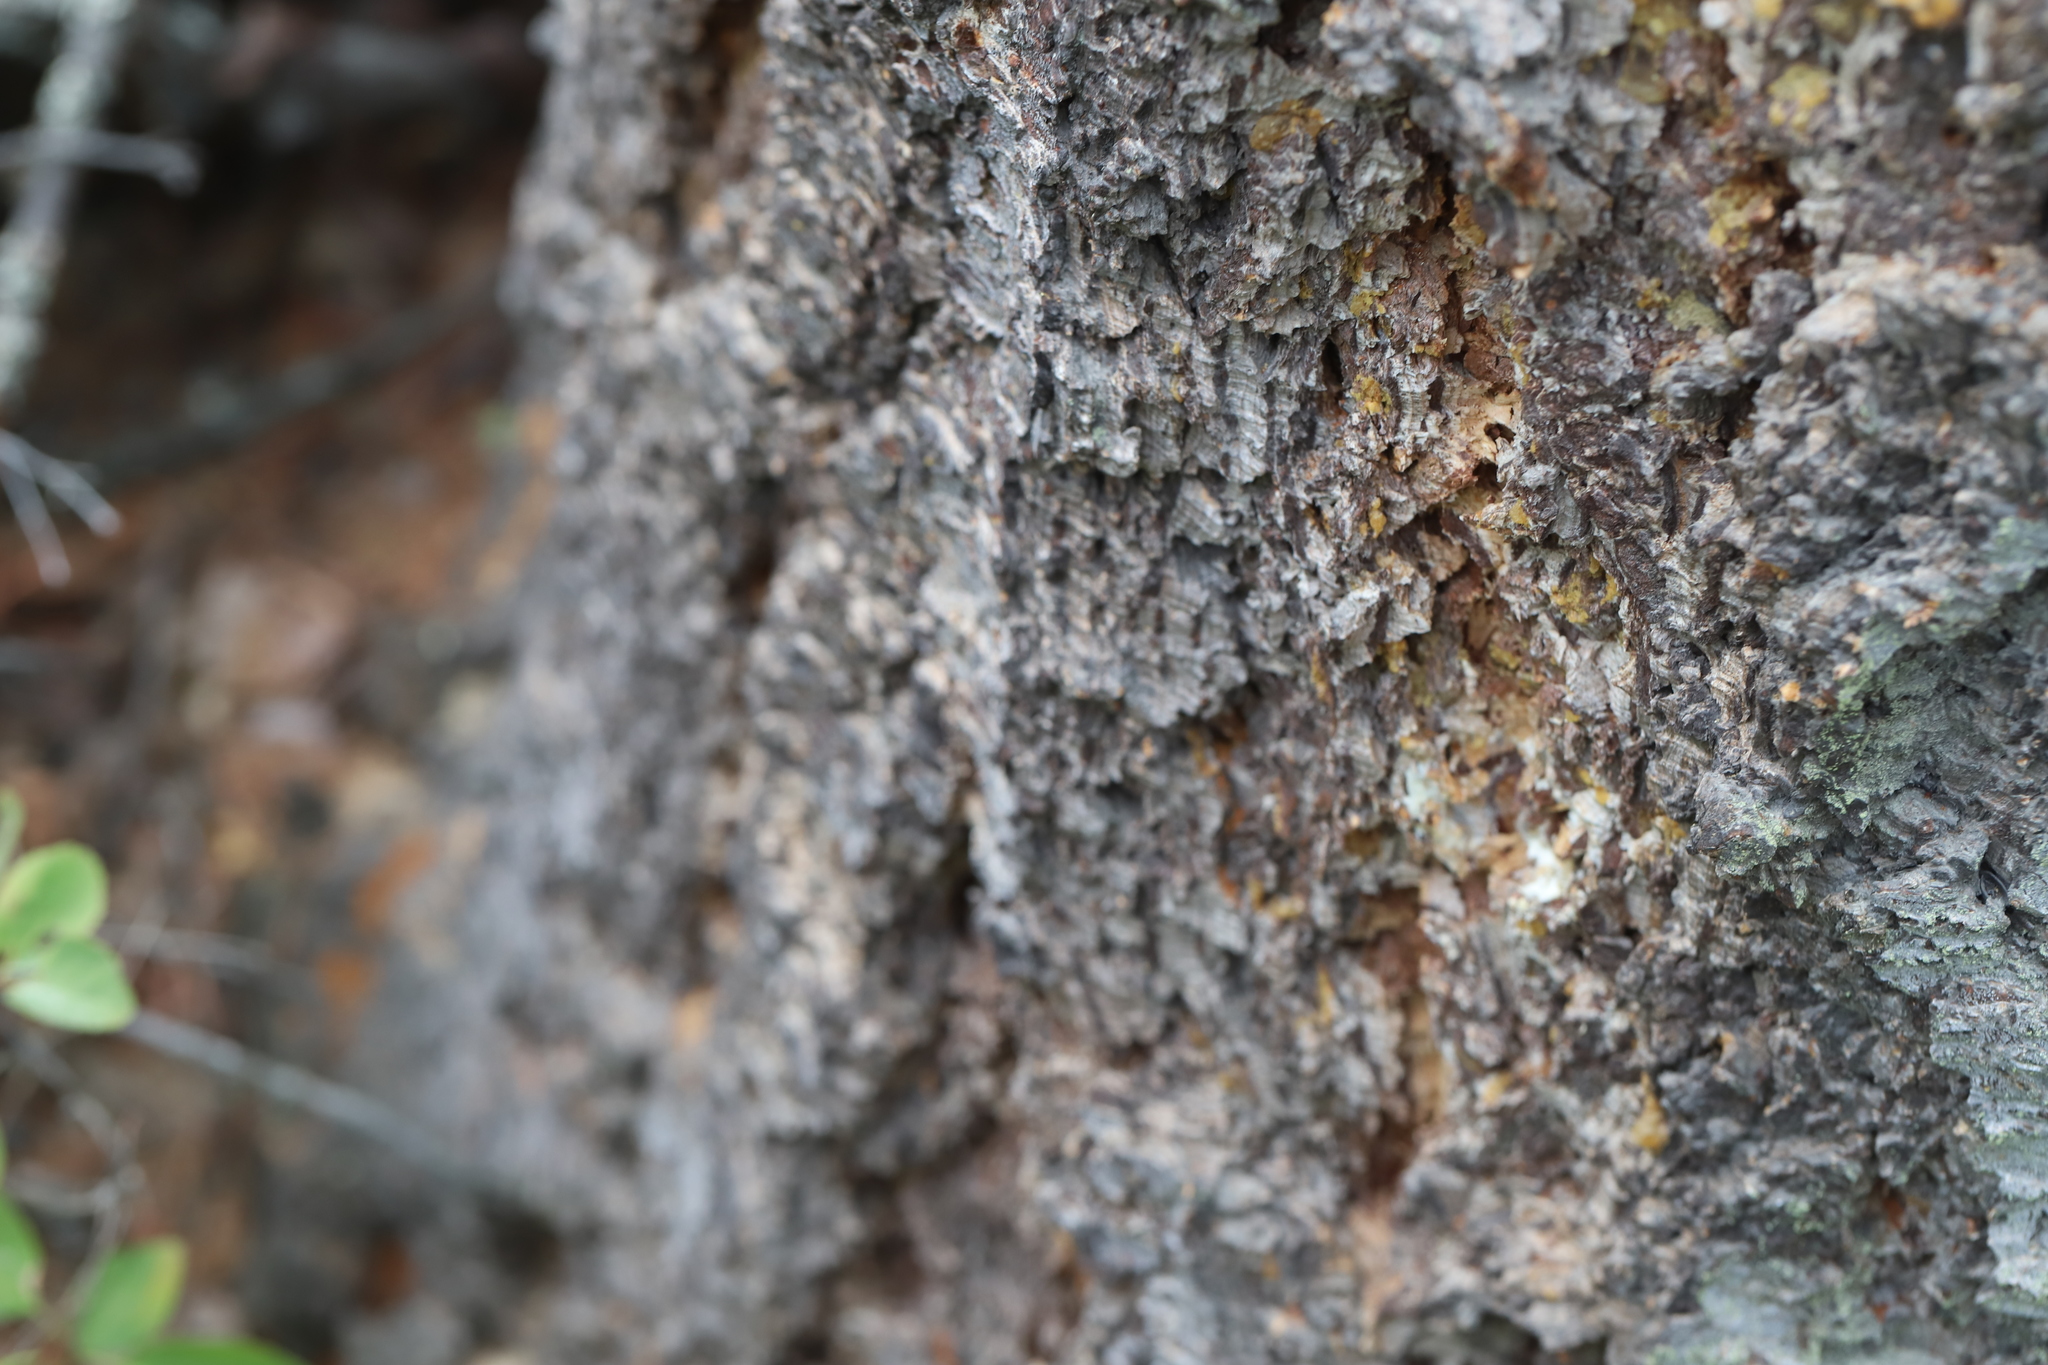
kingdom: Plantae
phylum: Tracheophyta
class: Pinopsida
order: Pinales
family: Pinaceae
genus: Pseudotsuga
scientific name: Pseudotsuga menziesii
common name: Douglas fir
